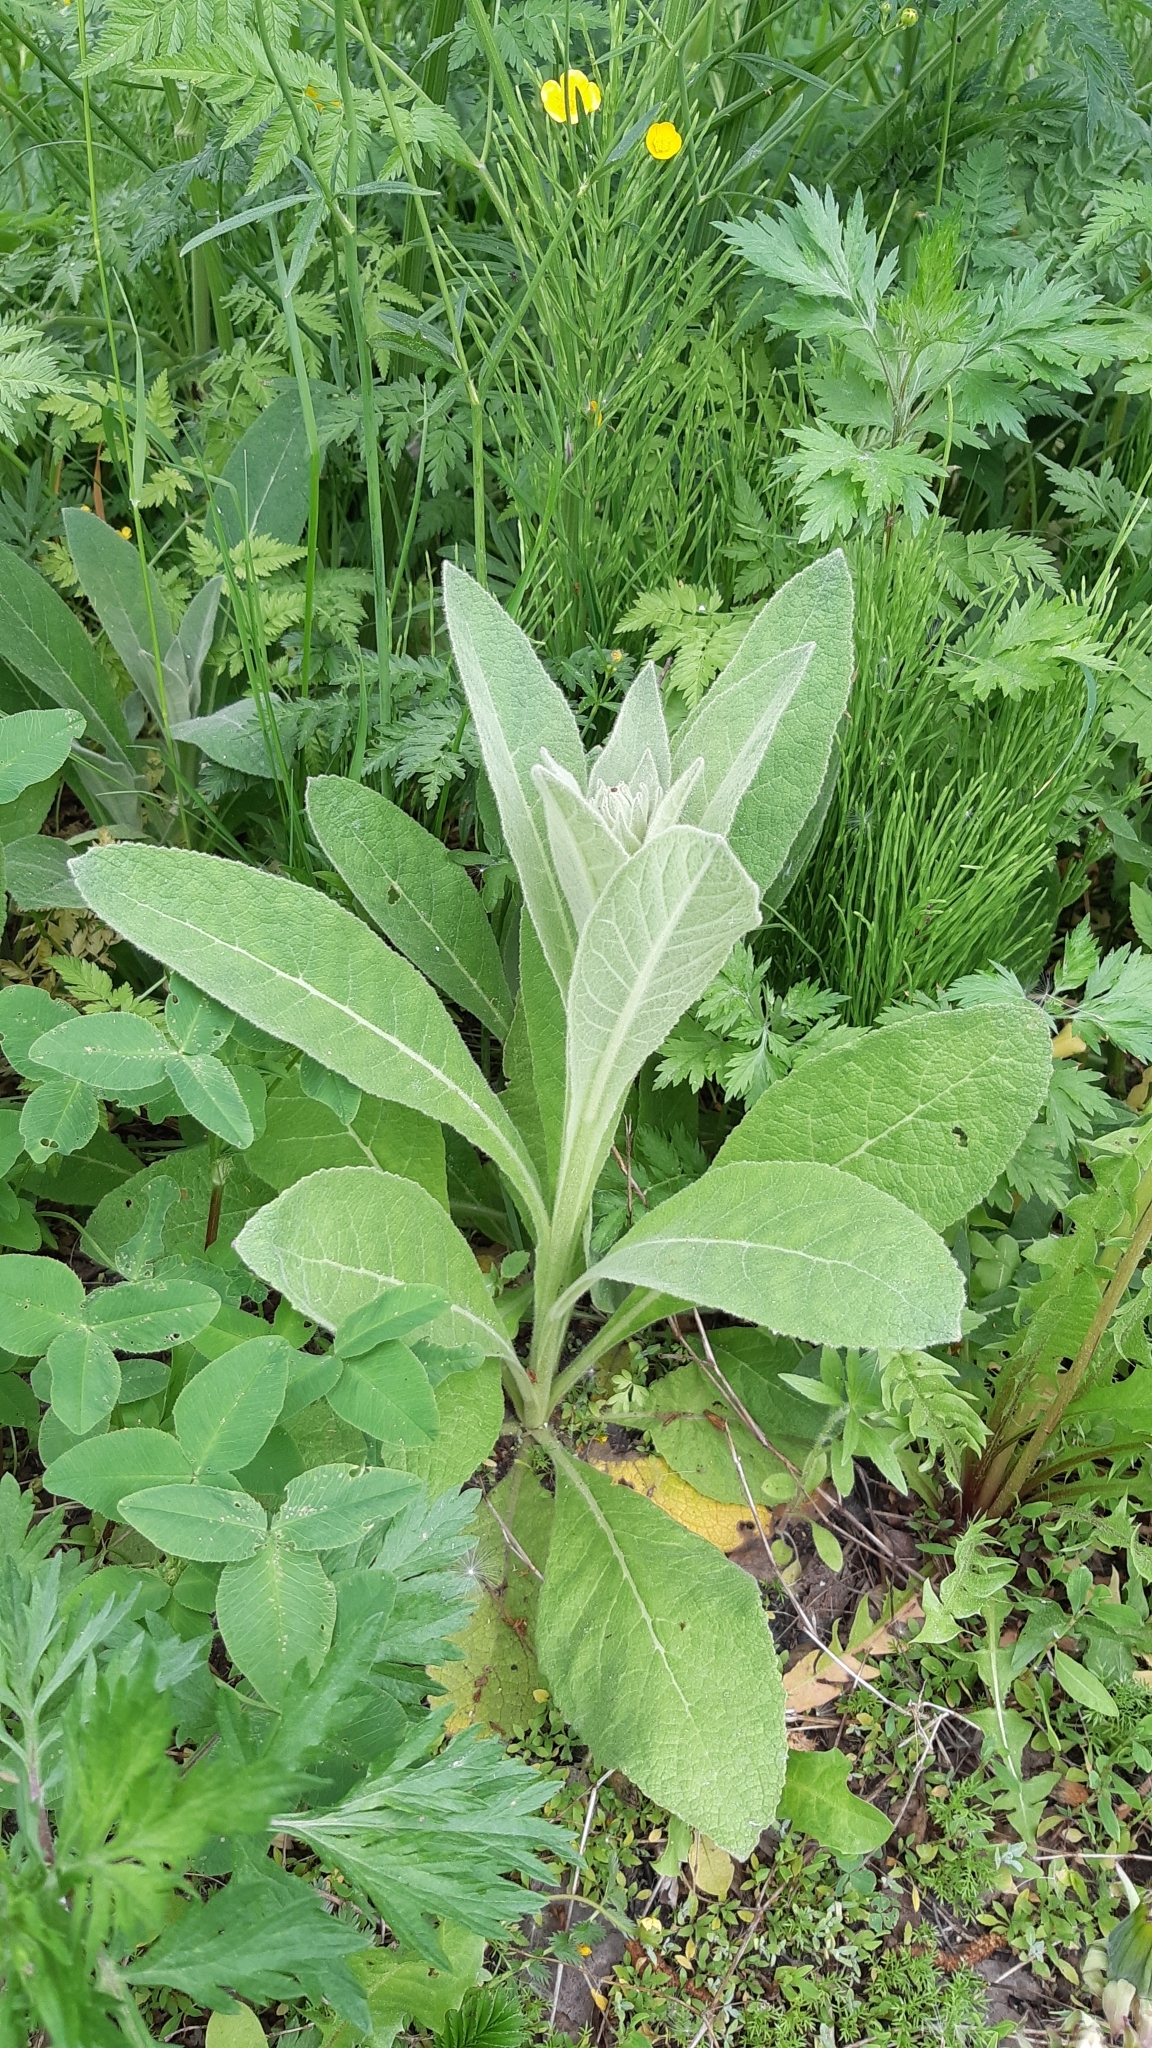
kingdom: Plantae
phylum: Tracheophyta
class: Magnoliopsida
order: Lamiales
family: Scrophulariaceae
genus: Verbascum
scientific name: Verbascum thapsus
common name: Common mullein
